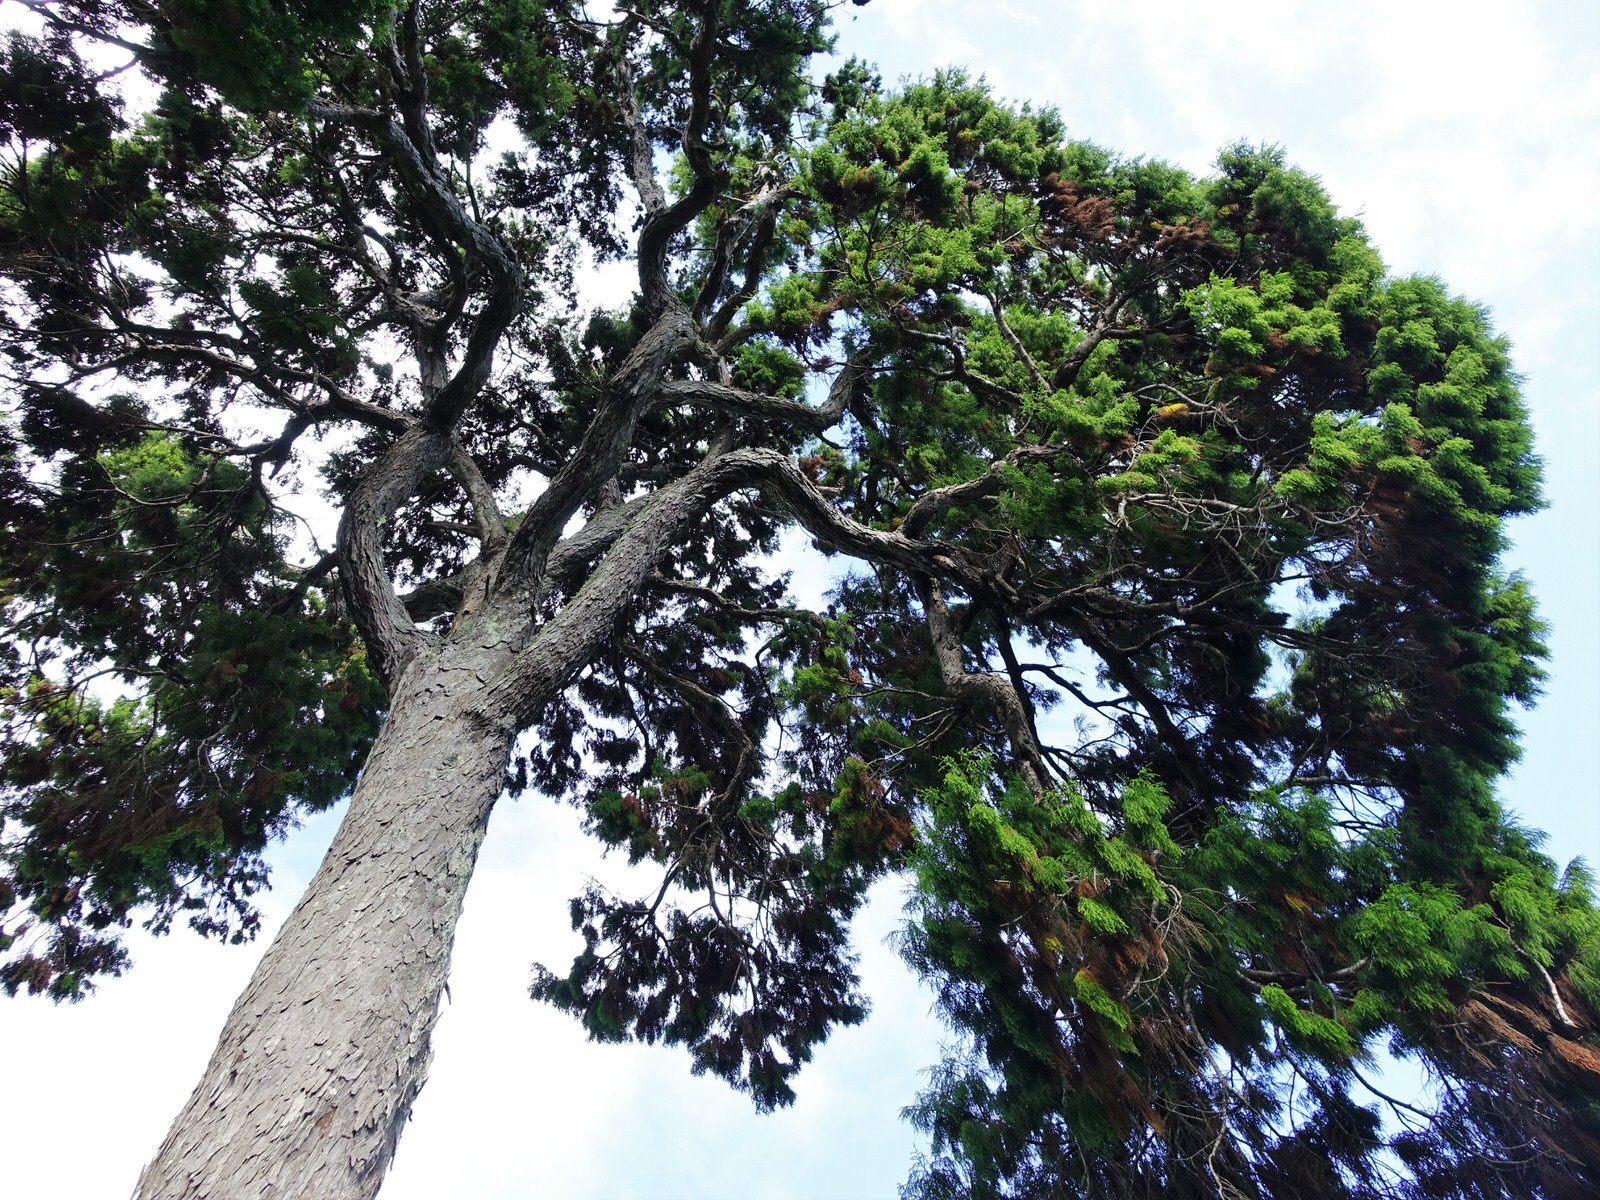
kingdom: Plantae
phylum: Tracheophyta
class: Pinopsida
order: Pinales
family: Podocarpaceae
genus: Dacrydium
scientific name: Dacrydium cupressinum
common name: Red pine
